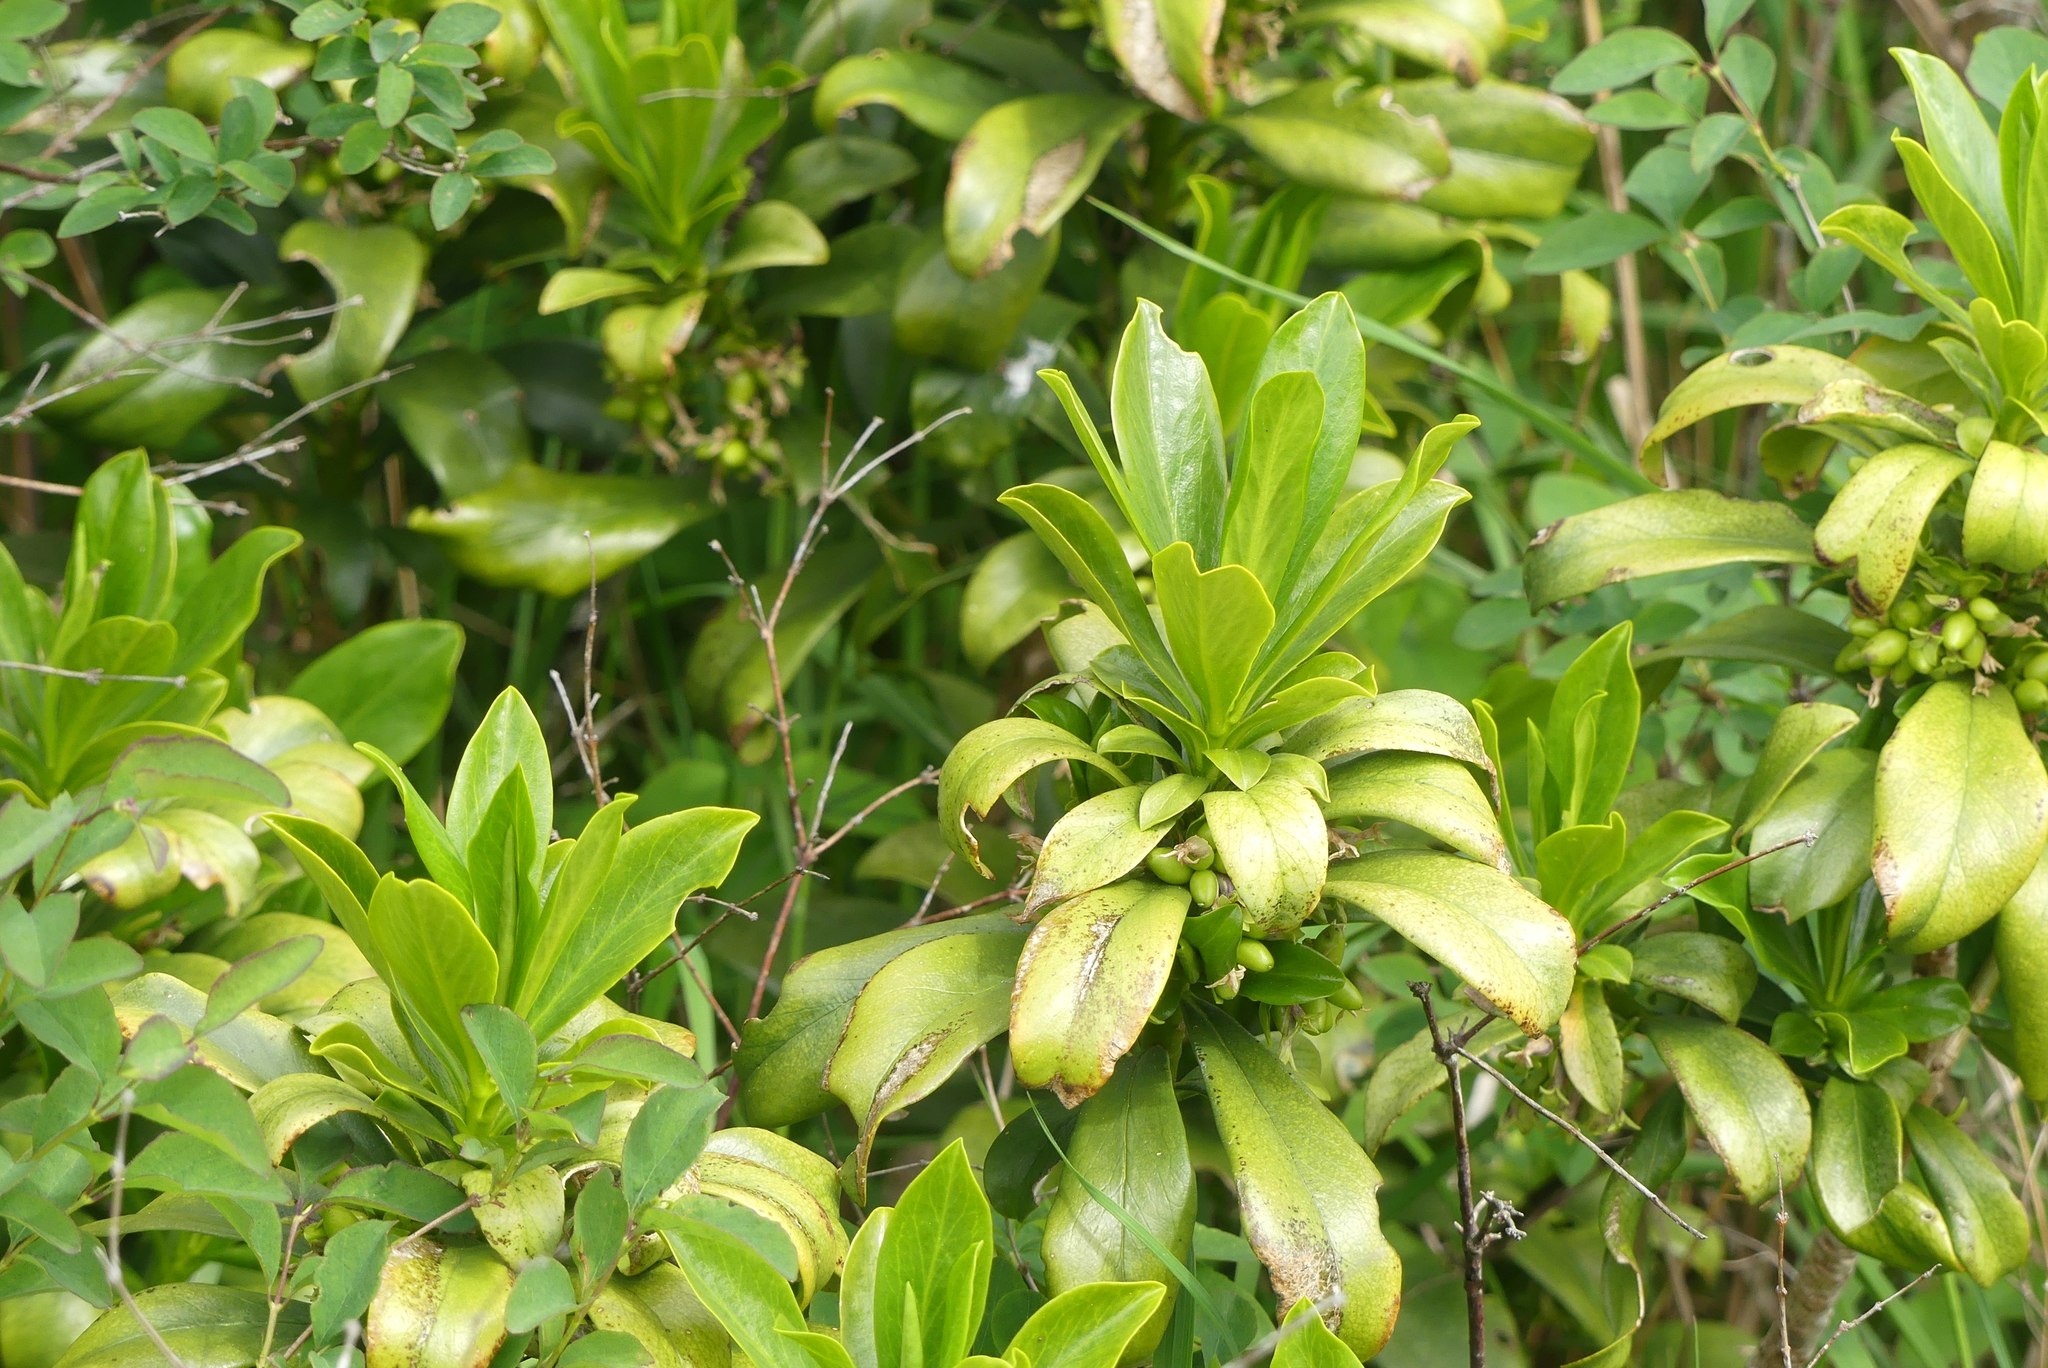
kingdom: Plantae
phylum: Tracheophyta
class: Magnoliopsida
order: Malvales
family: Thymelaeaceae
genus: Daphne
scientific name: Daphne laureola
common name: Spurge-laurel
